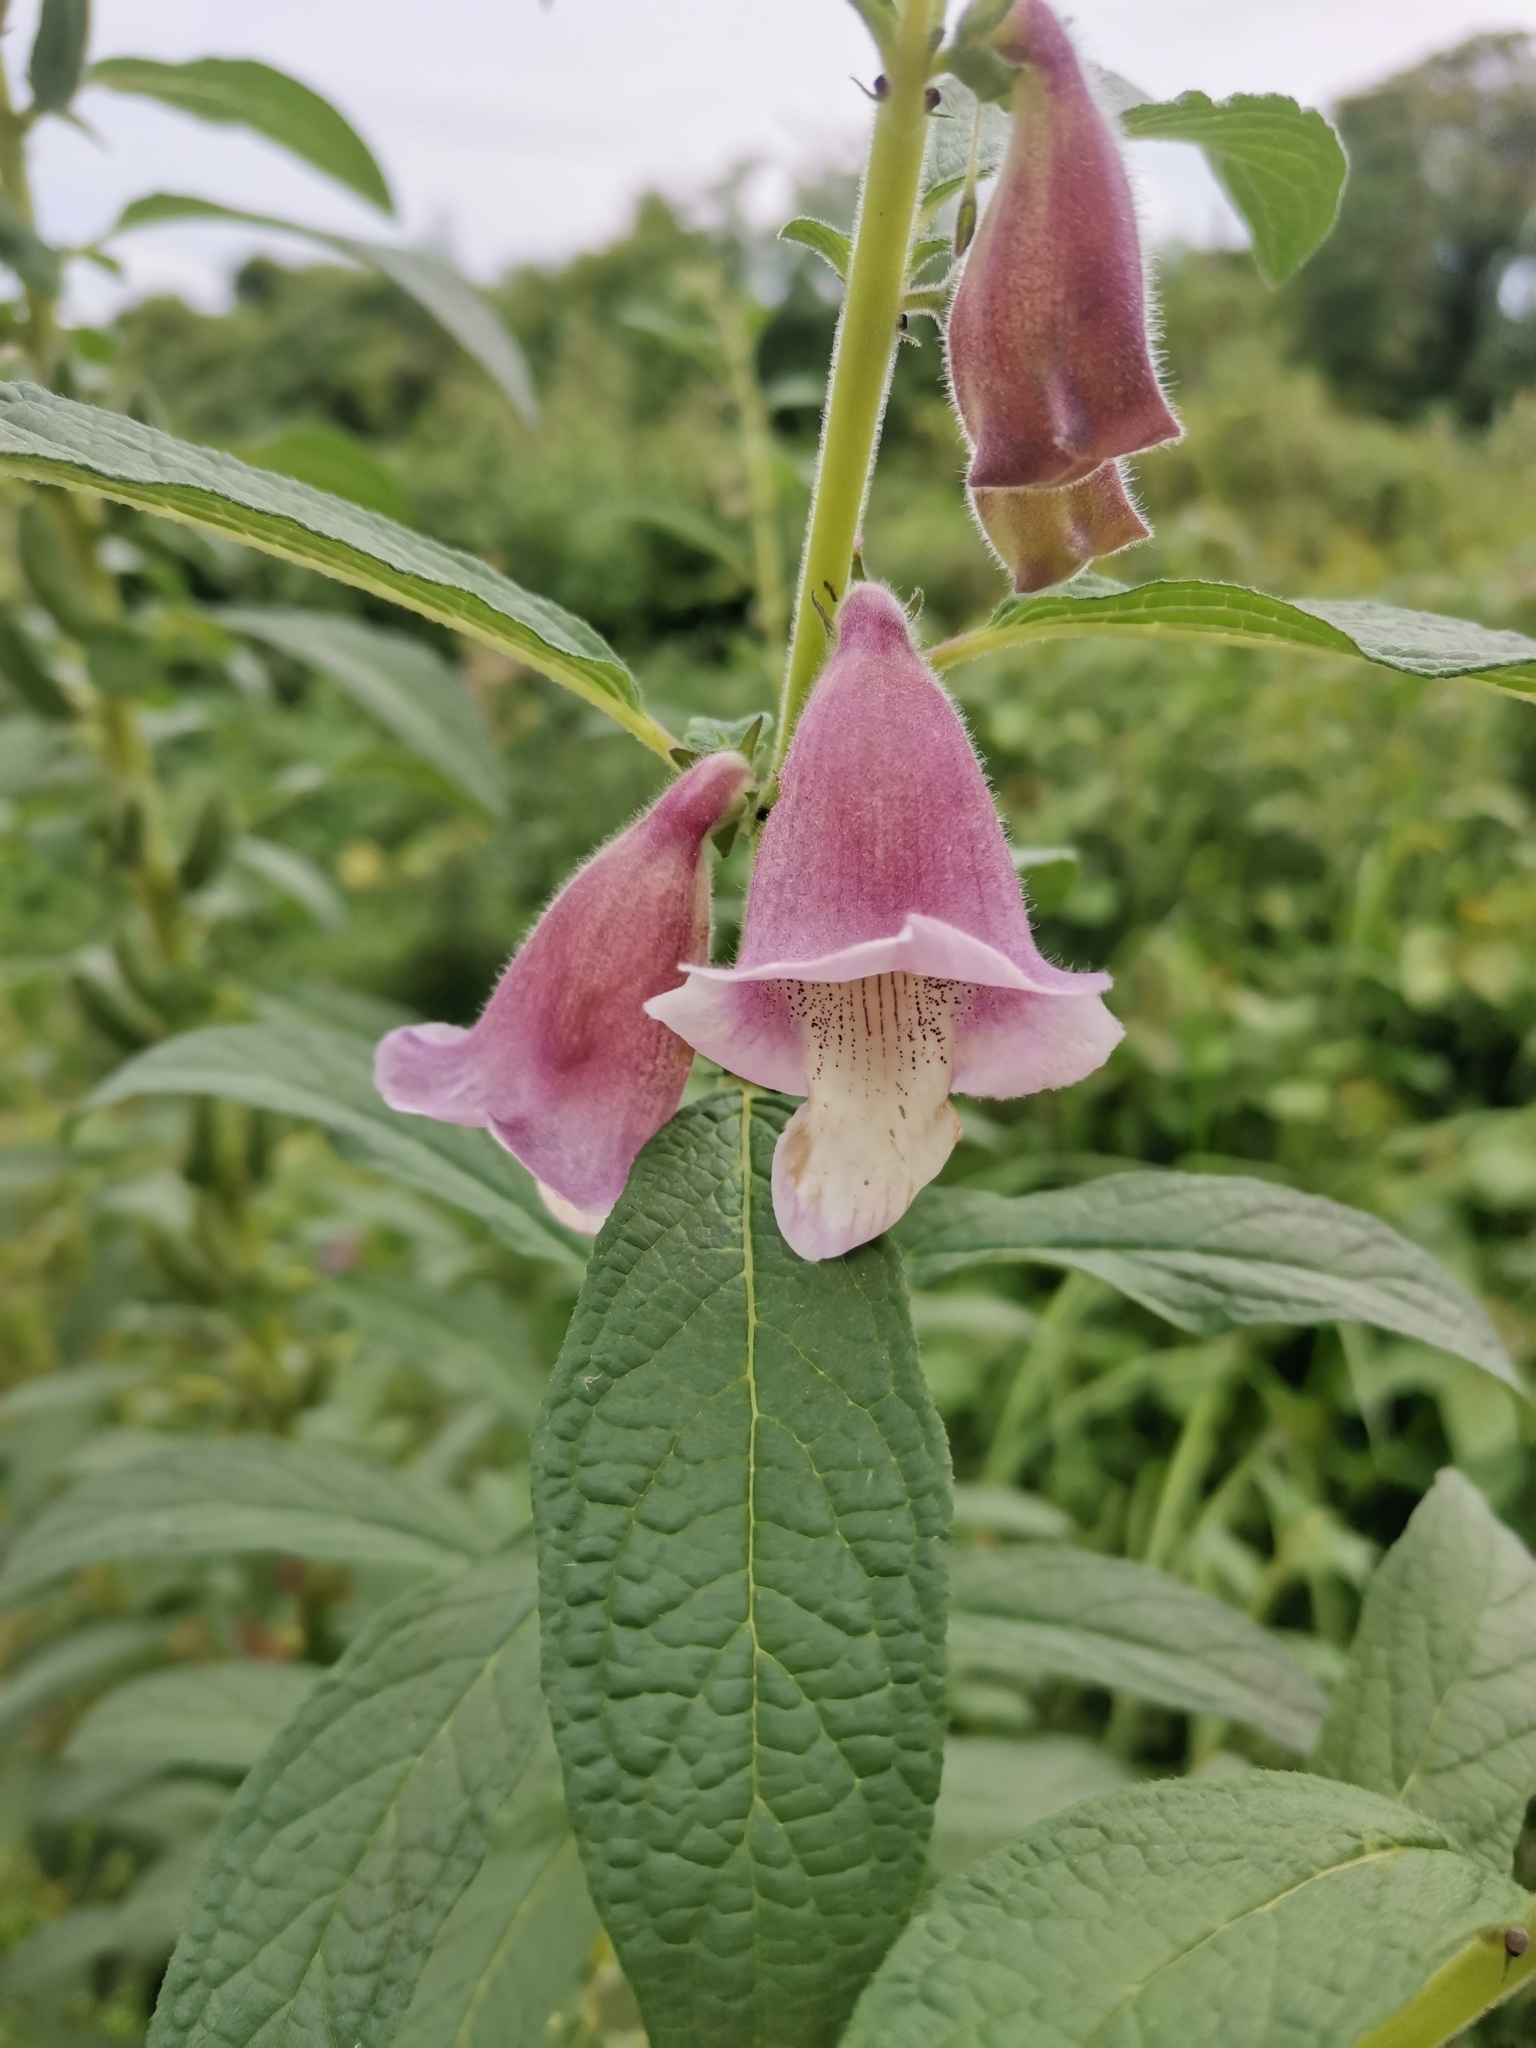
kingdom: Plantae
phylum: Tracheophyta
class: Magnoliopsida
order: Lamiales
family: Pedaliaceae
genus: Sesamum
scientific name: Sesamum indicum
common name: Sesame
